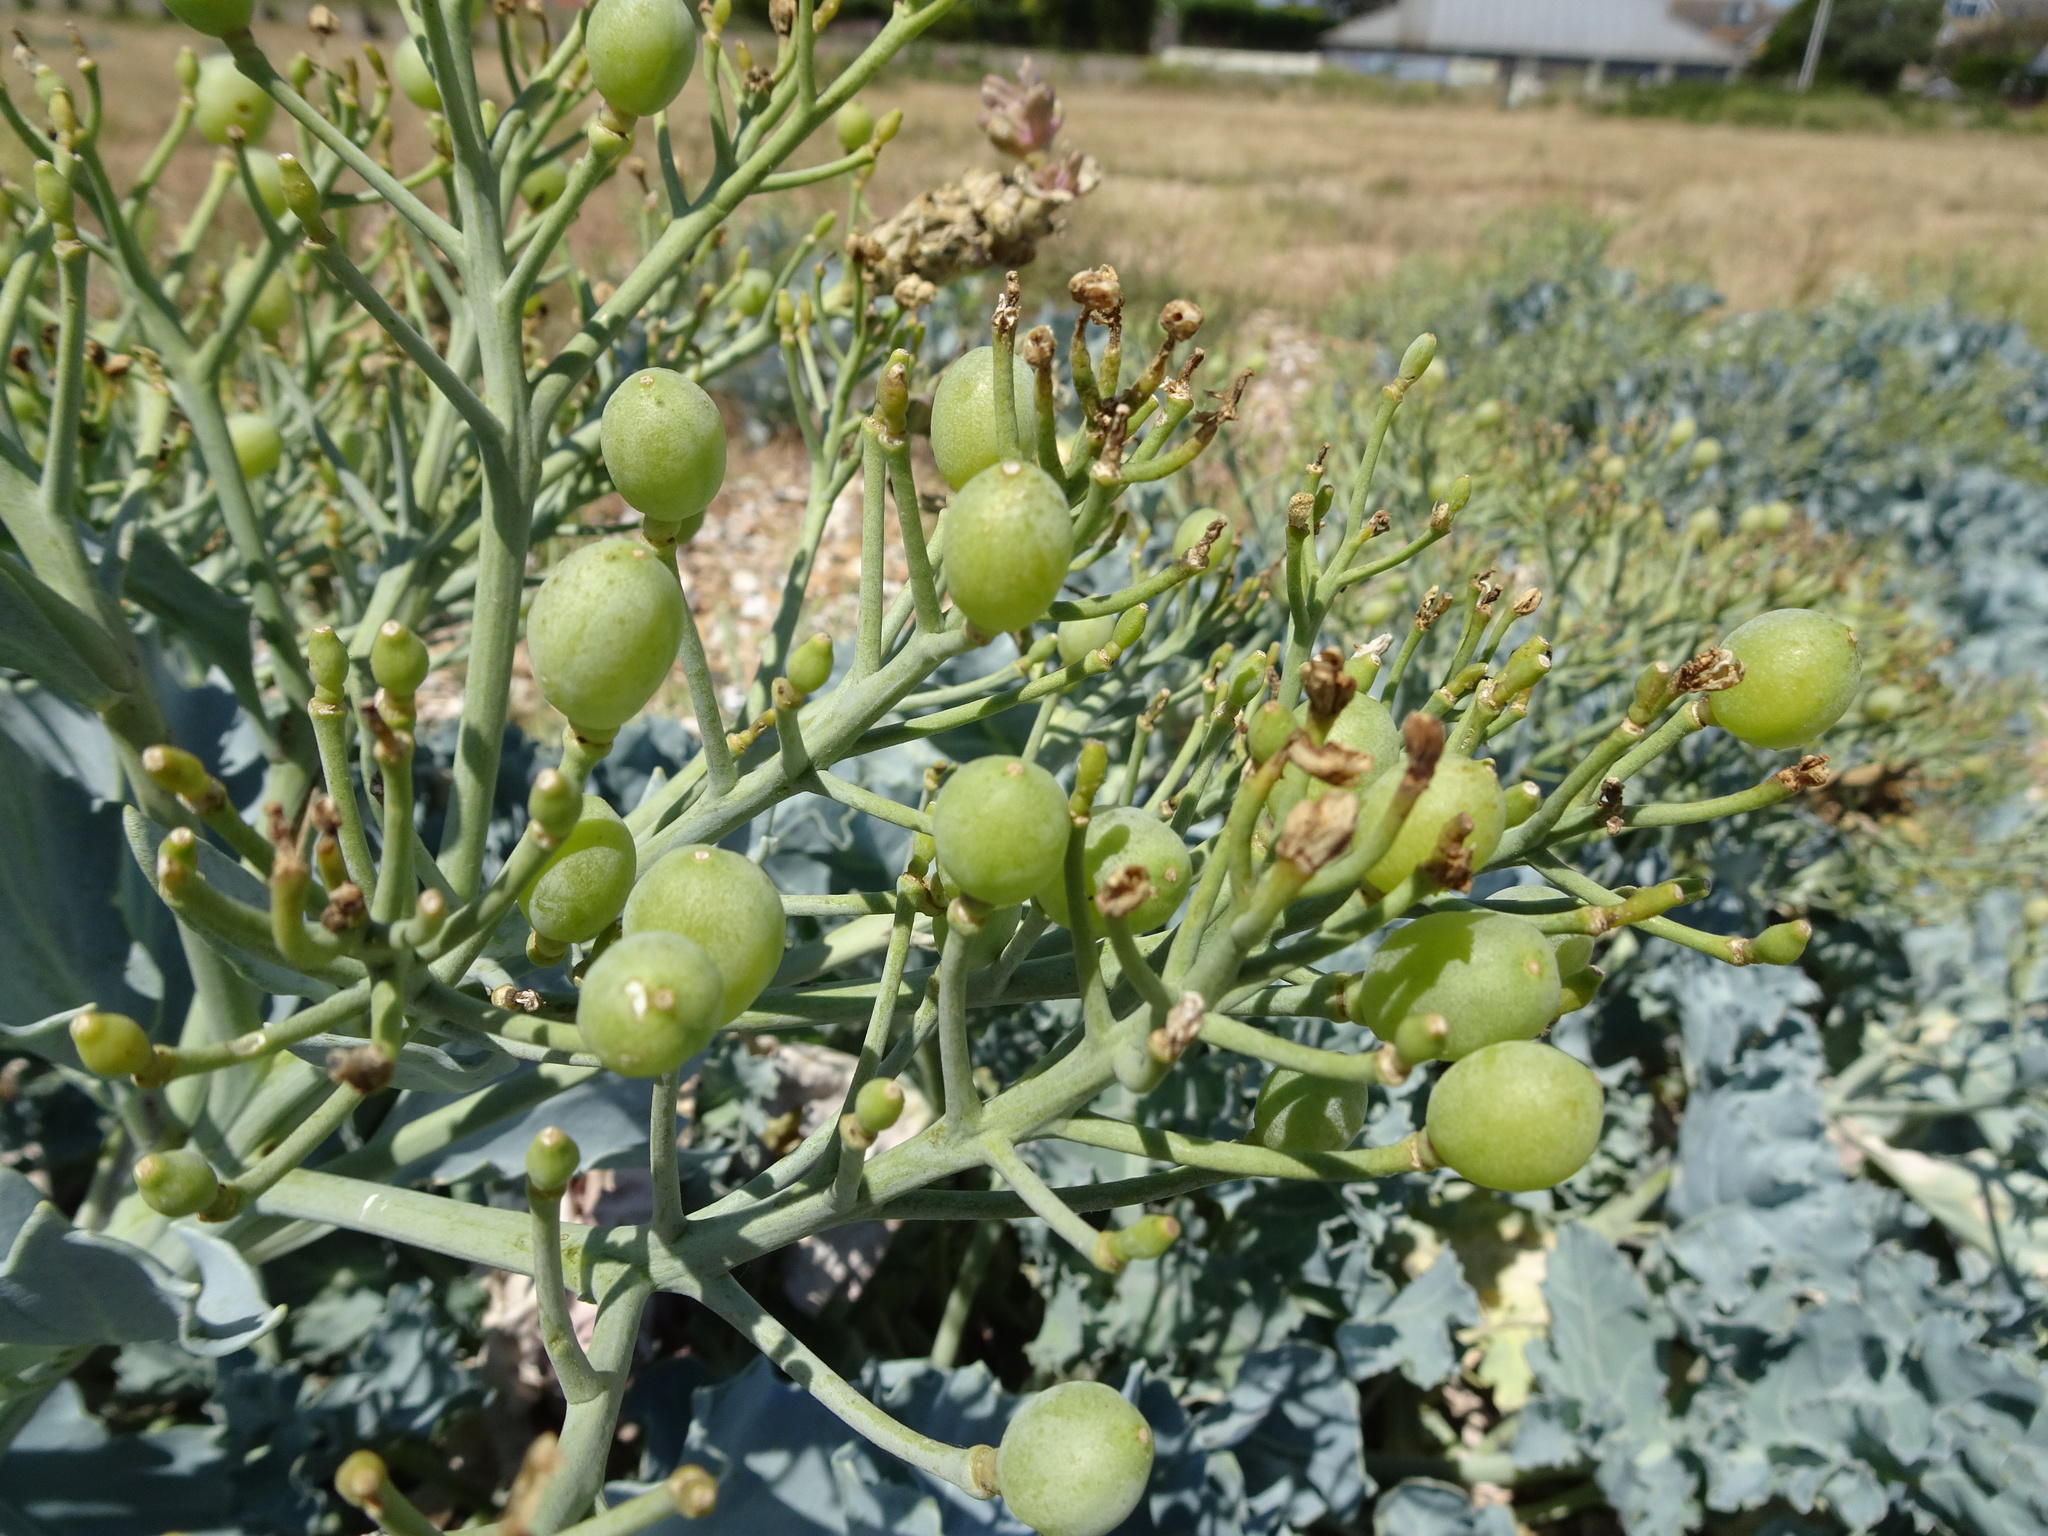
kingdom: Plantae
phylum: Tracheophyta
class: Magnoliopsida
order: Brassicales
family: Brassicaceae
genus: Crambe
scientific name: Crambe maritima
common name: Sea-kale
